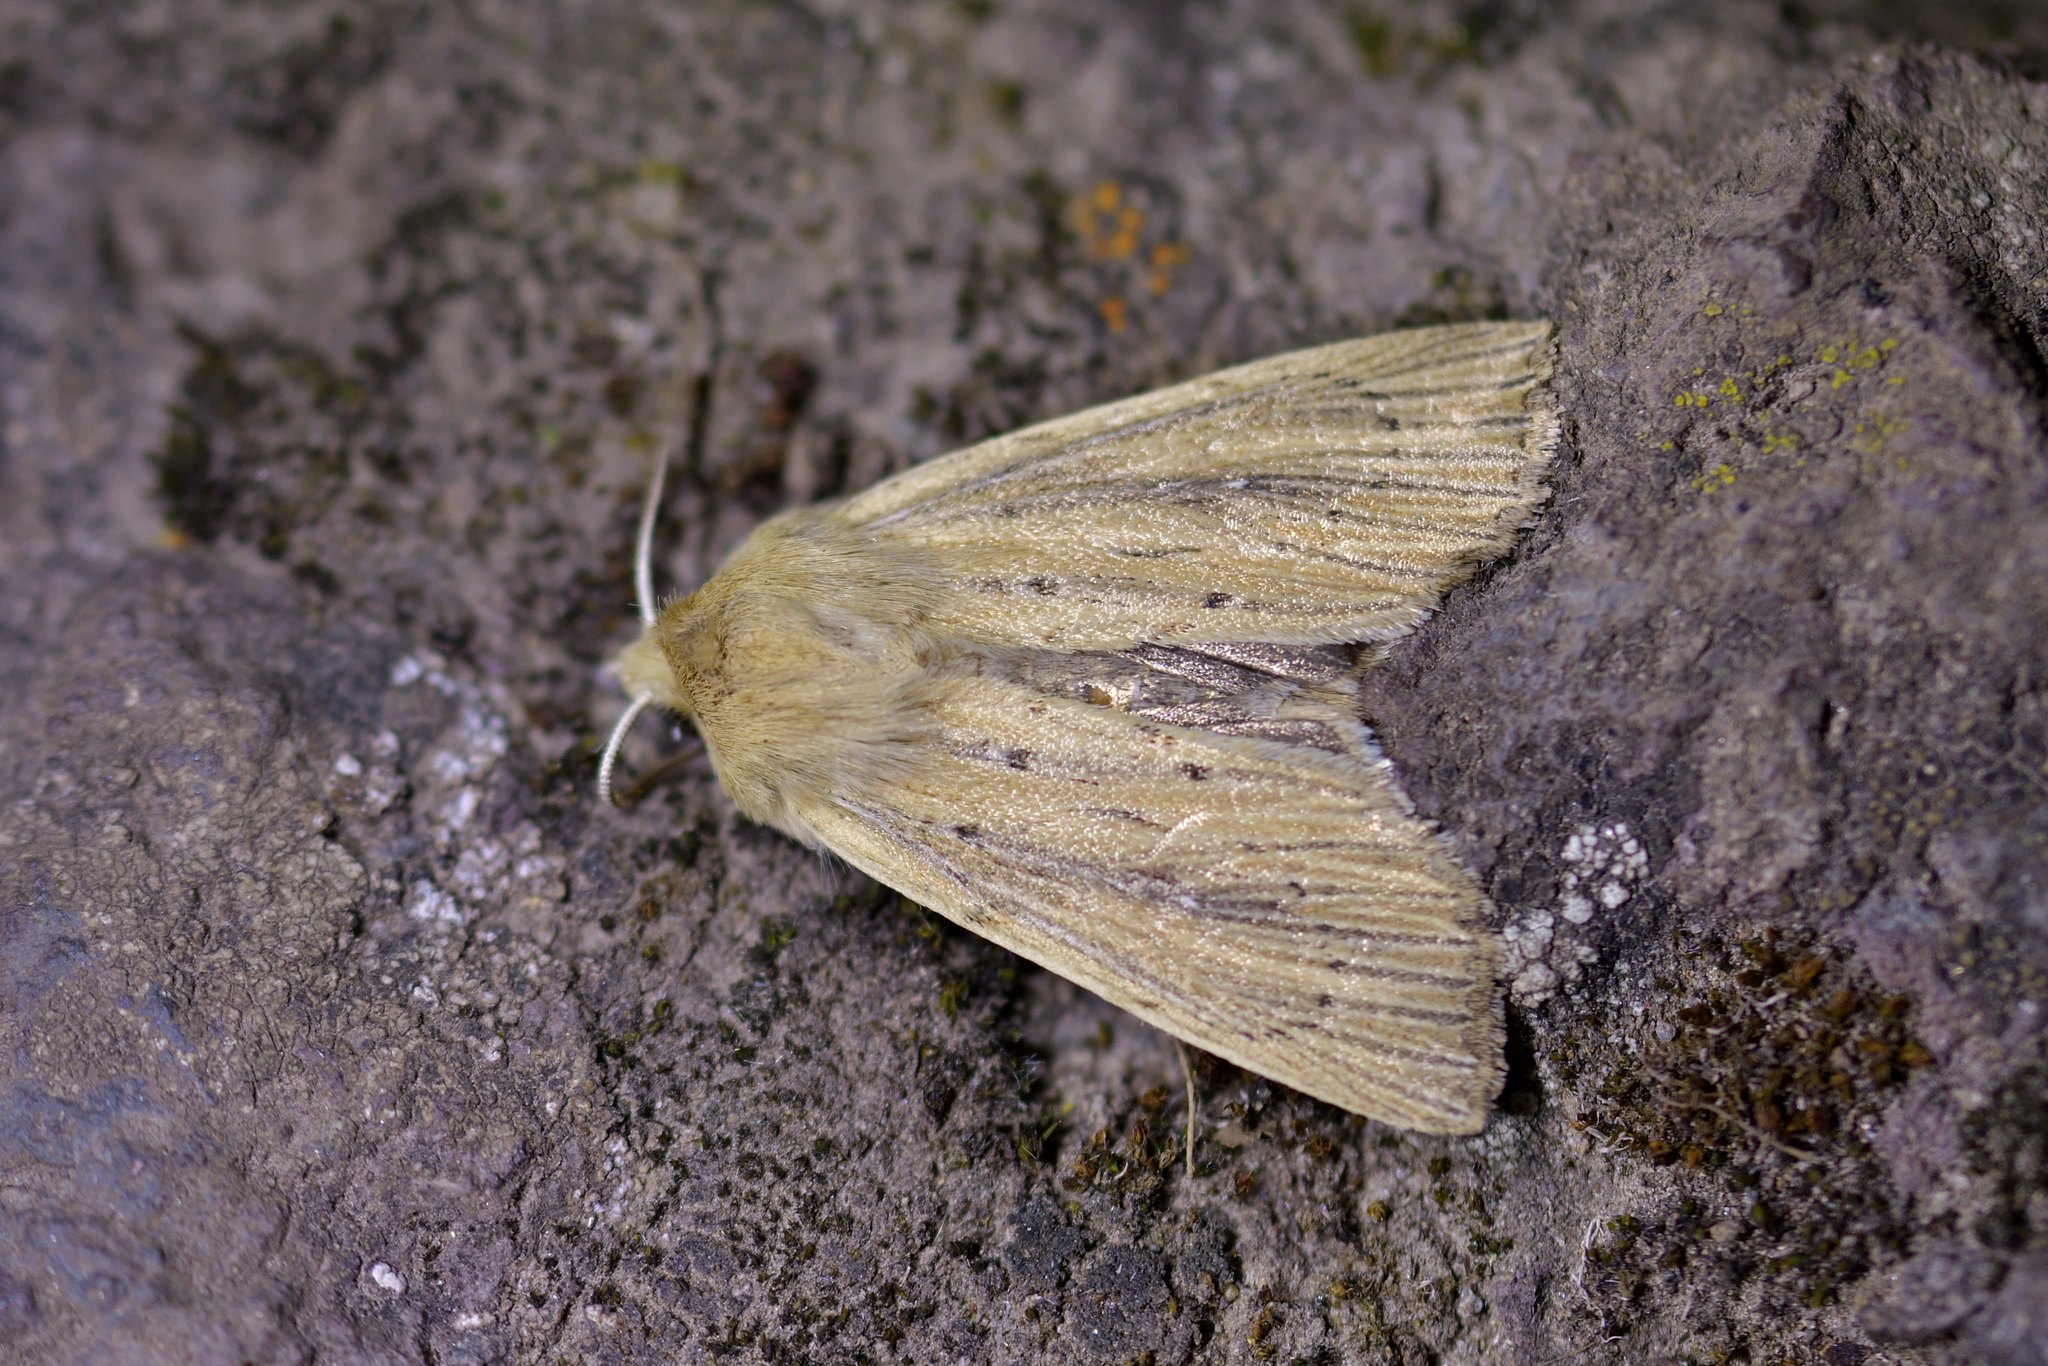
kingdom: Animalia
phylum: Arthropoda
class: Insecta
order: Lepidoptera
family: Noctuidae
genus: Ichneutica
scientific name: Ichneutica arotis
